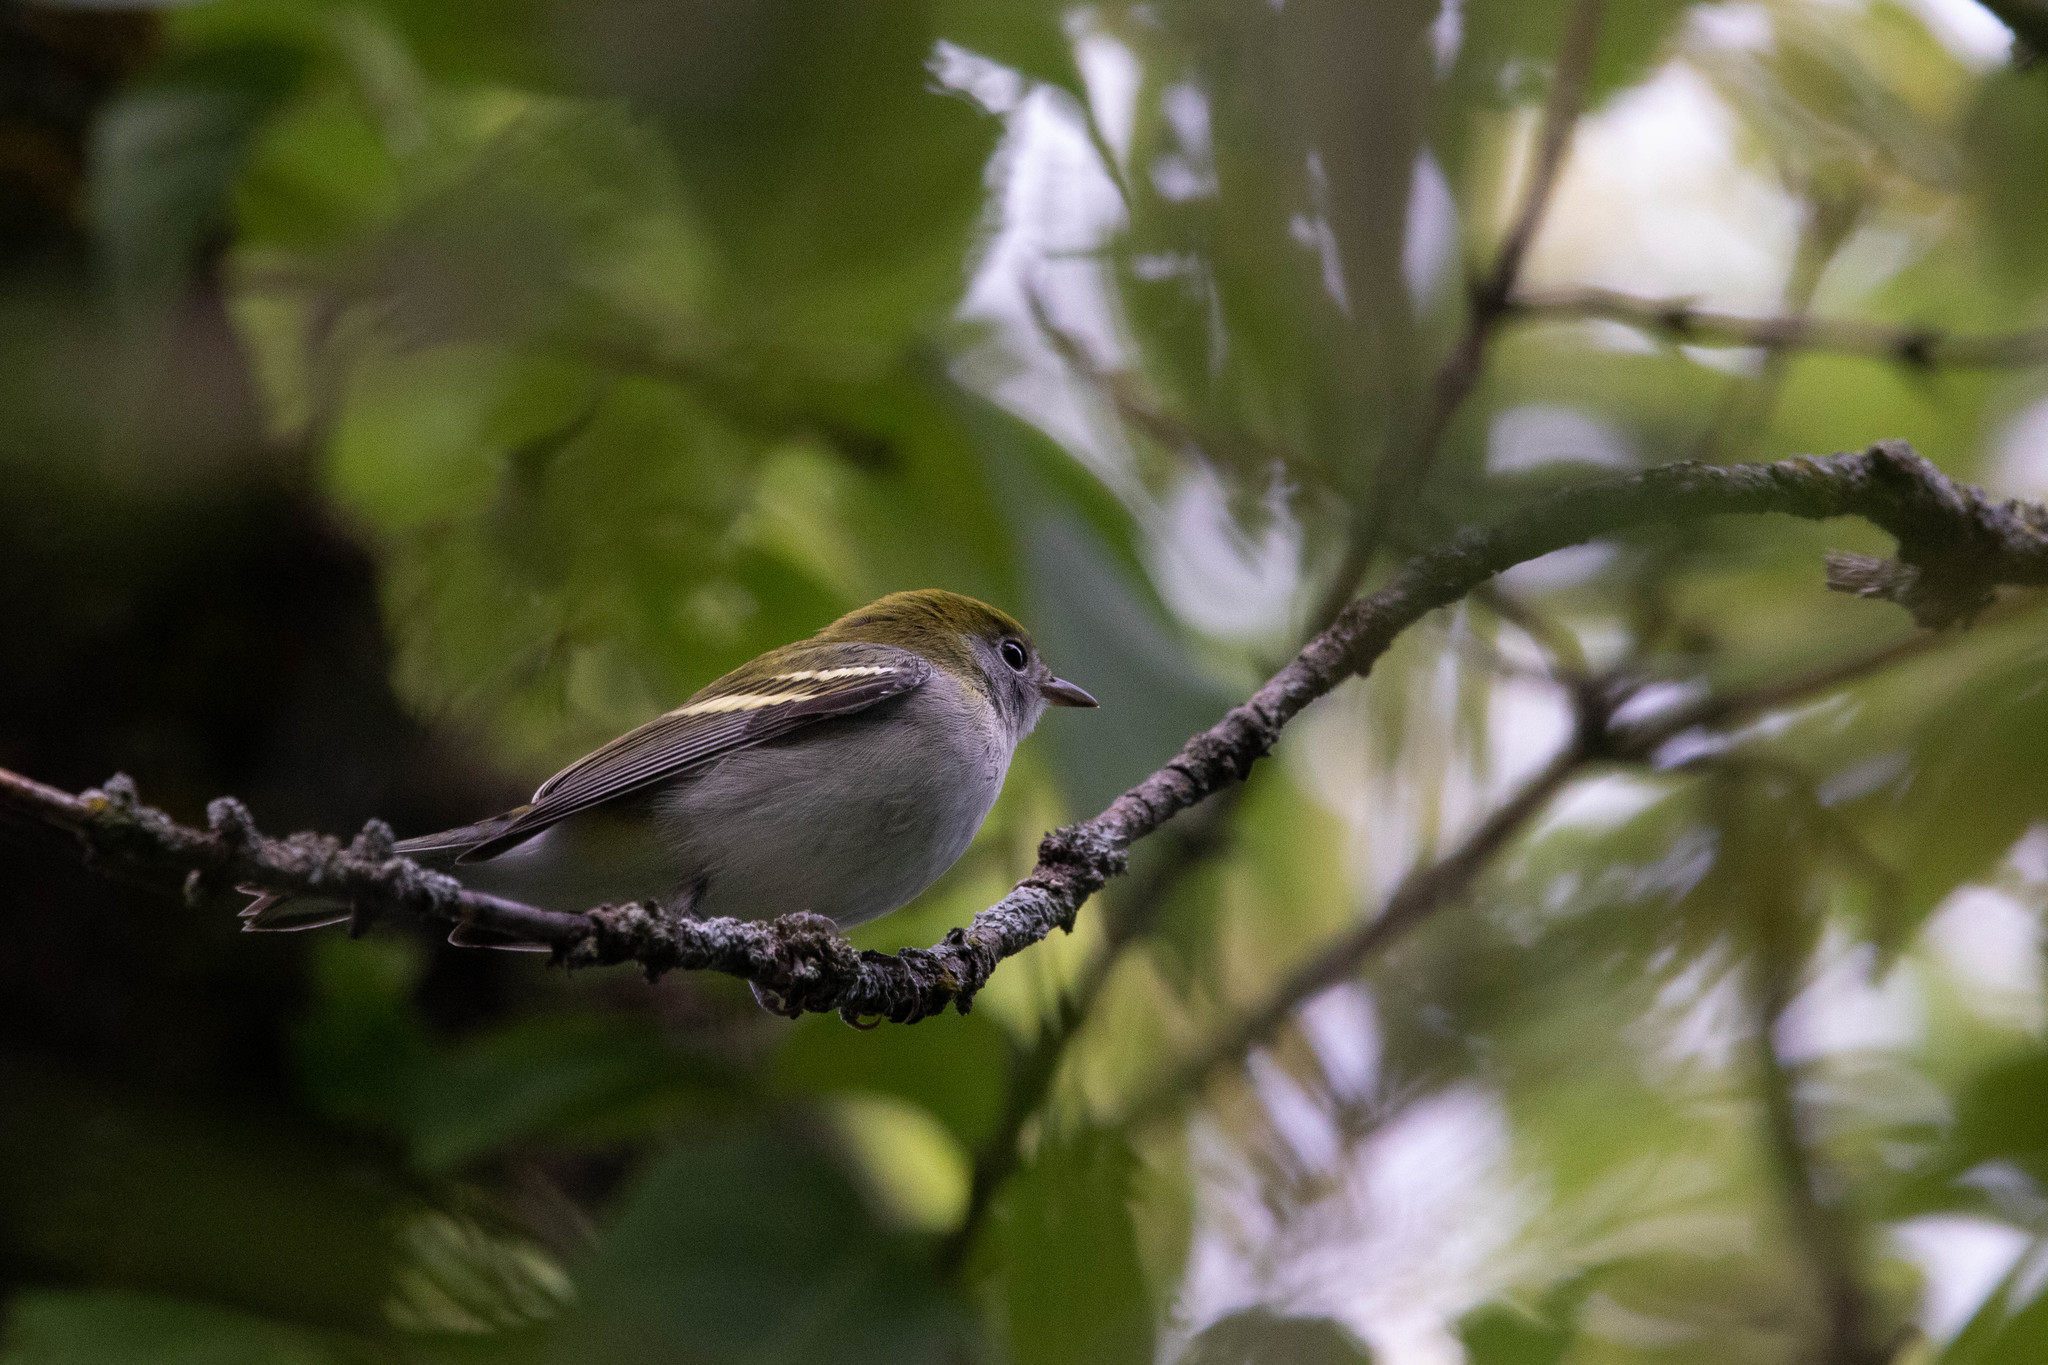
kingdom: Animalia
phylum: Chordata
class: Aves
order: Passeriformes
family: Parulidae
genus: Setophaga
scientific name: Setophaga pensylvanica
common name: Chestnut-sided warbler
